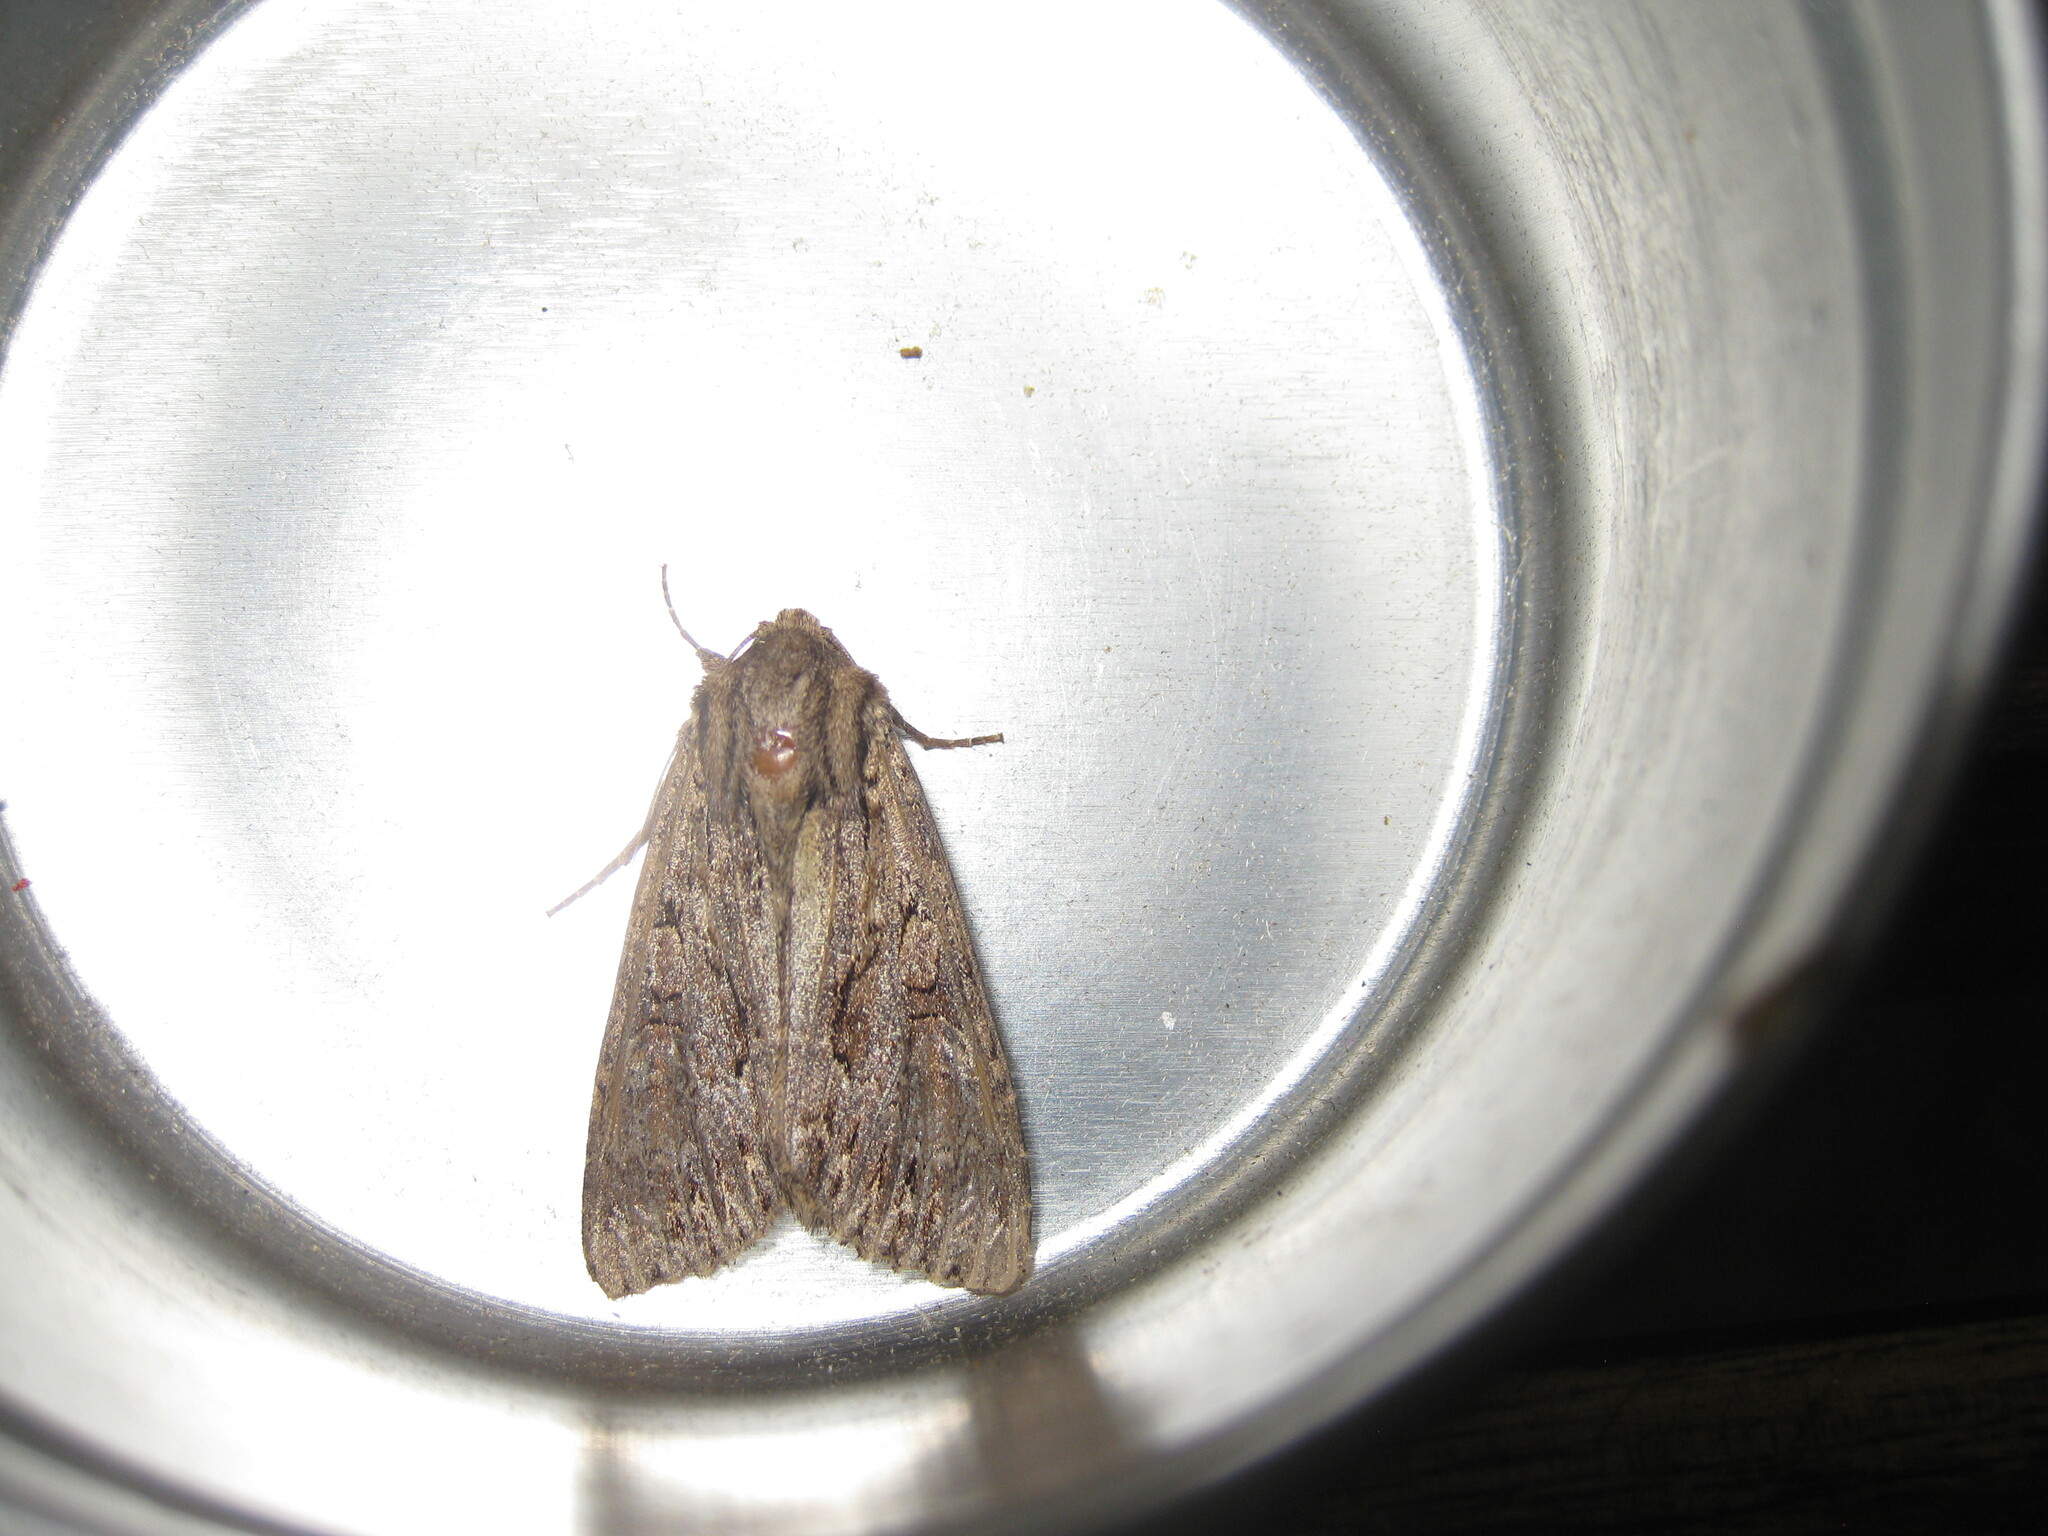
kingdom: Animalia
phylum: Arthropoda
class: Insecta
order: Lepidoptera
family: Noctuidae
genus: Apamea
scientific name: Apamea monoglypha
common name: Dark arches
